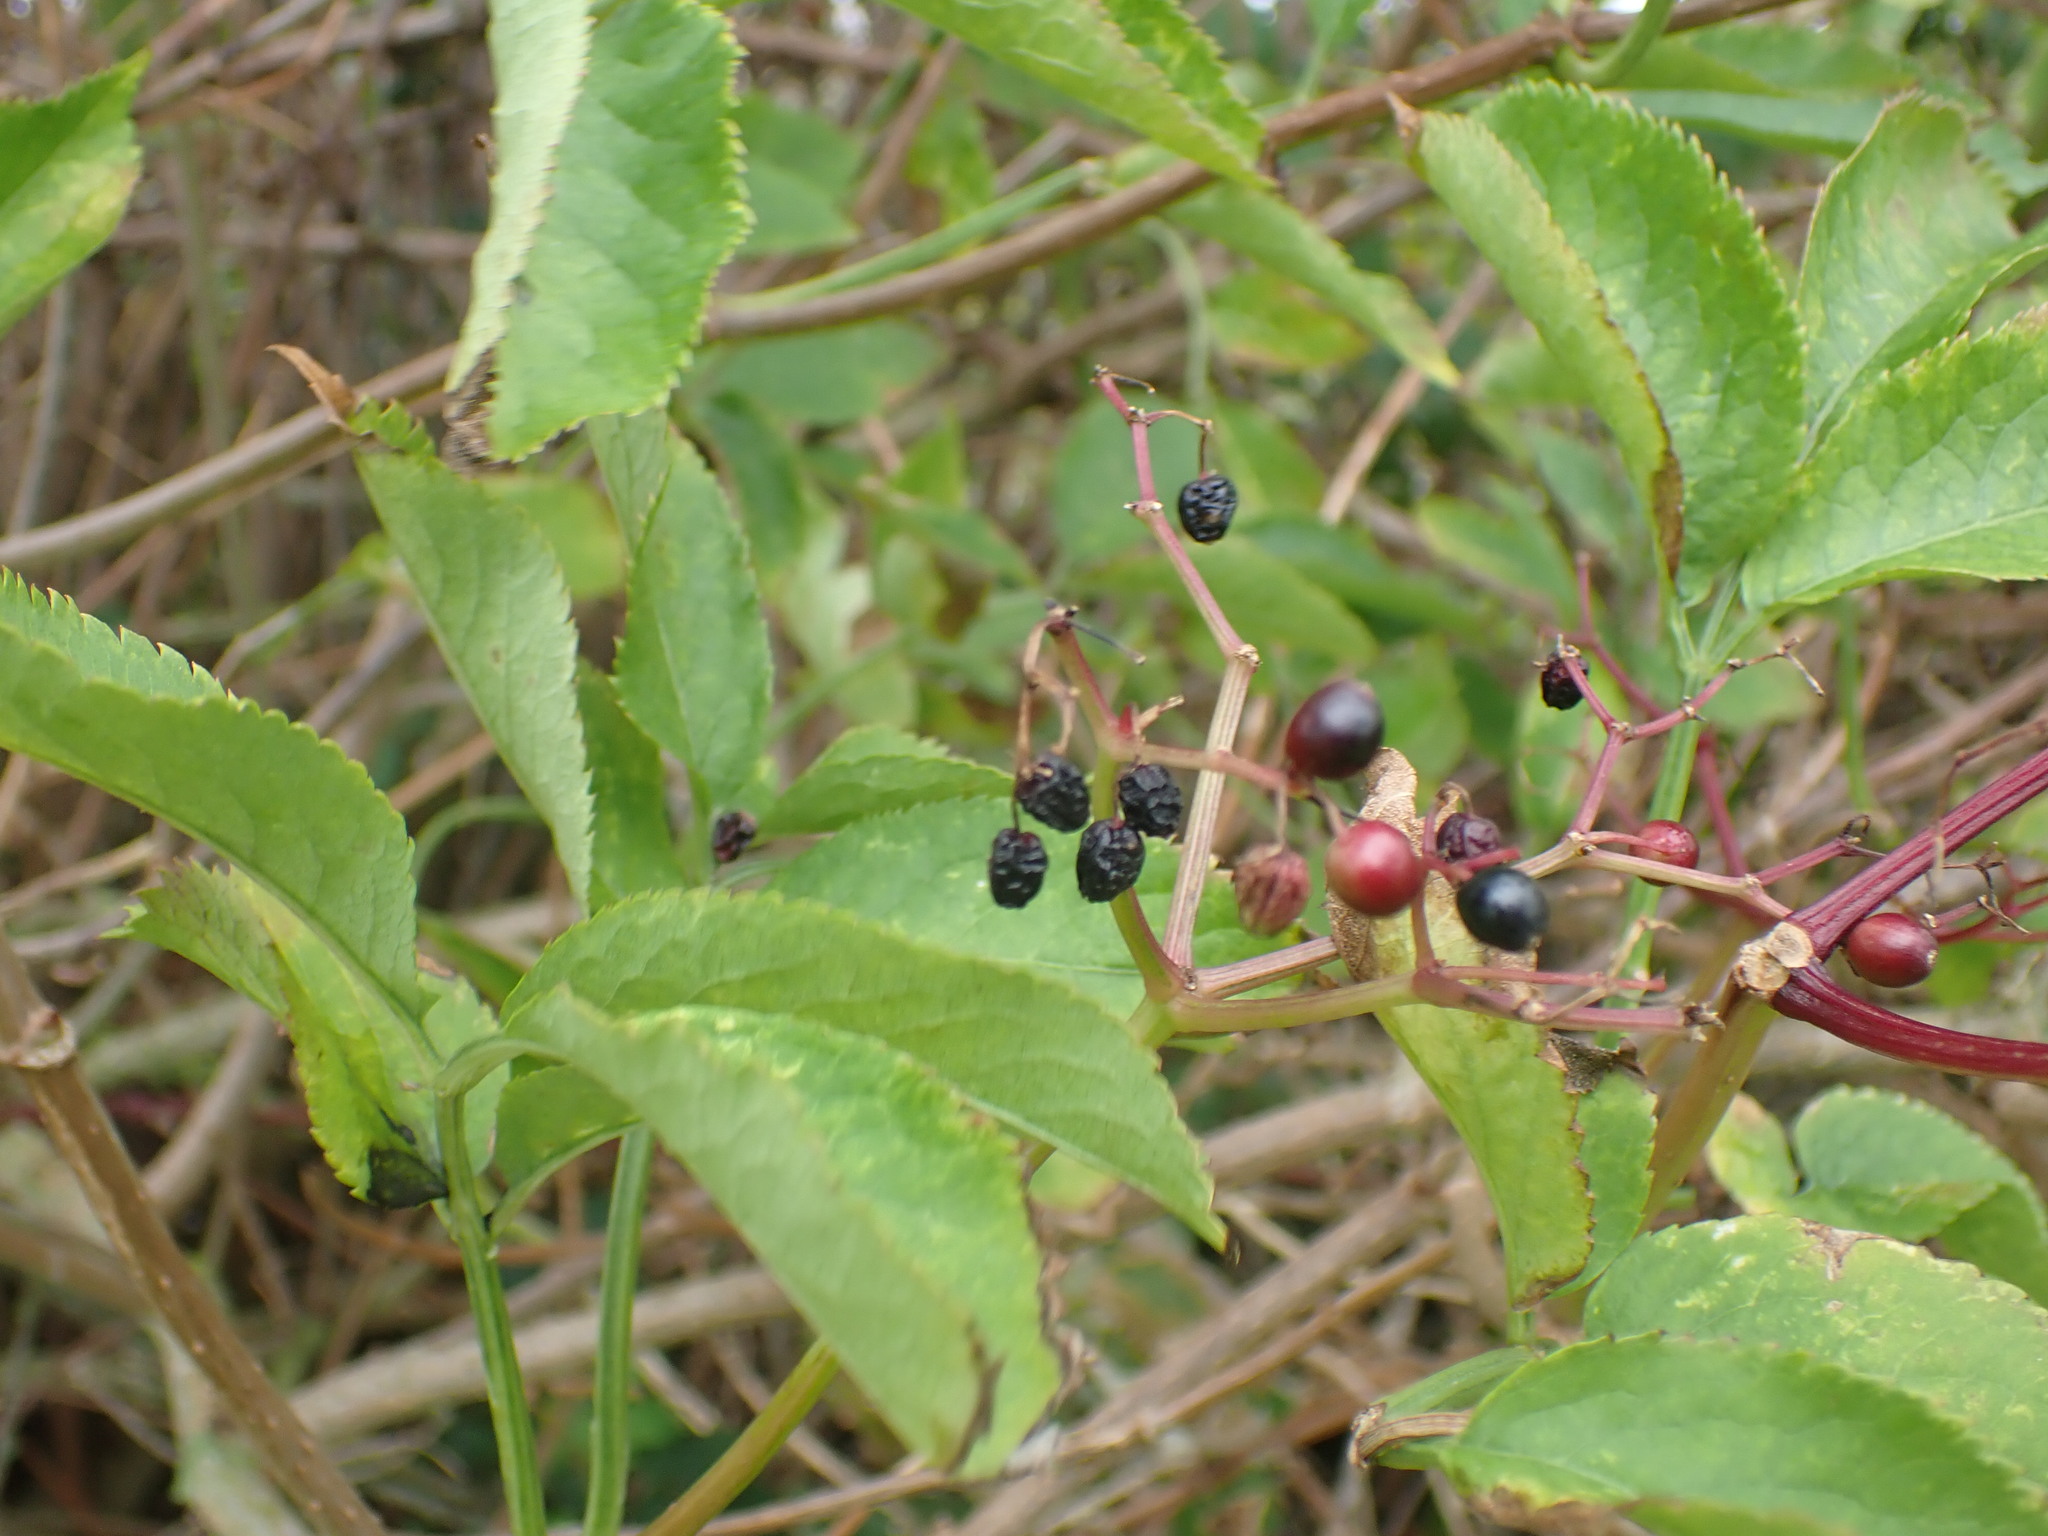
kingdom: Plantae
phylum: Tracheophyta
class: Magnoliopsida
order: Dipsacales
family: Viburnaceae
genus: Sambucus
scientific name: Sambucus nigra
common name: Elder
